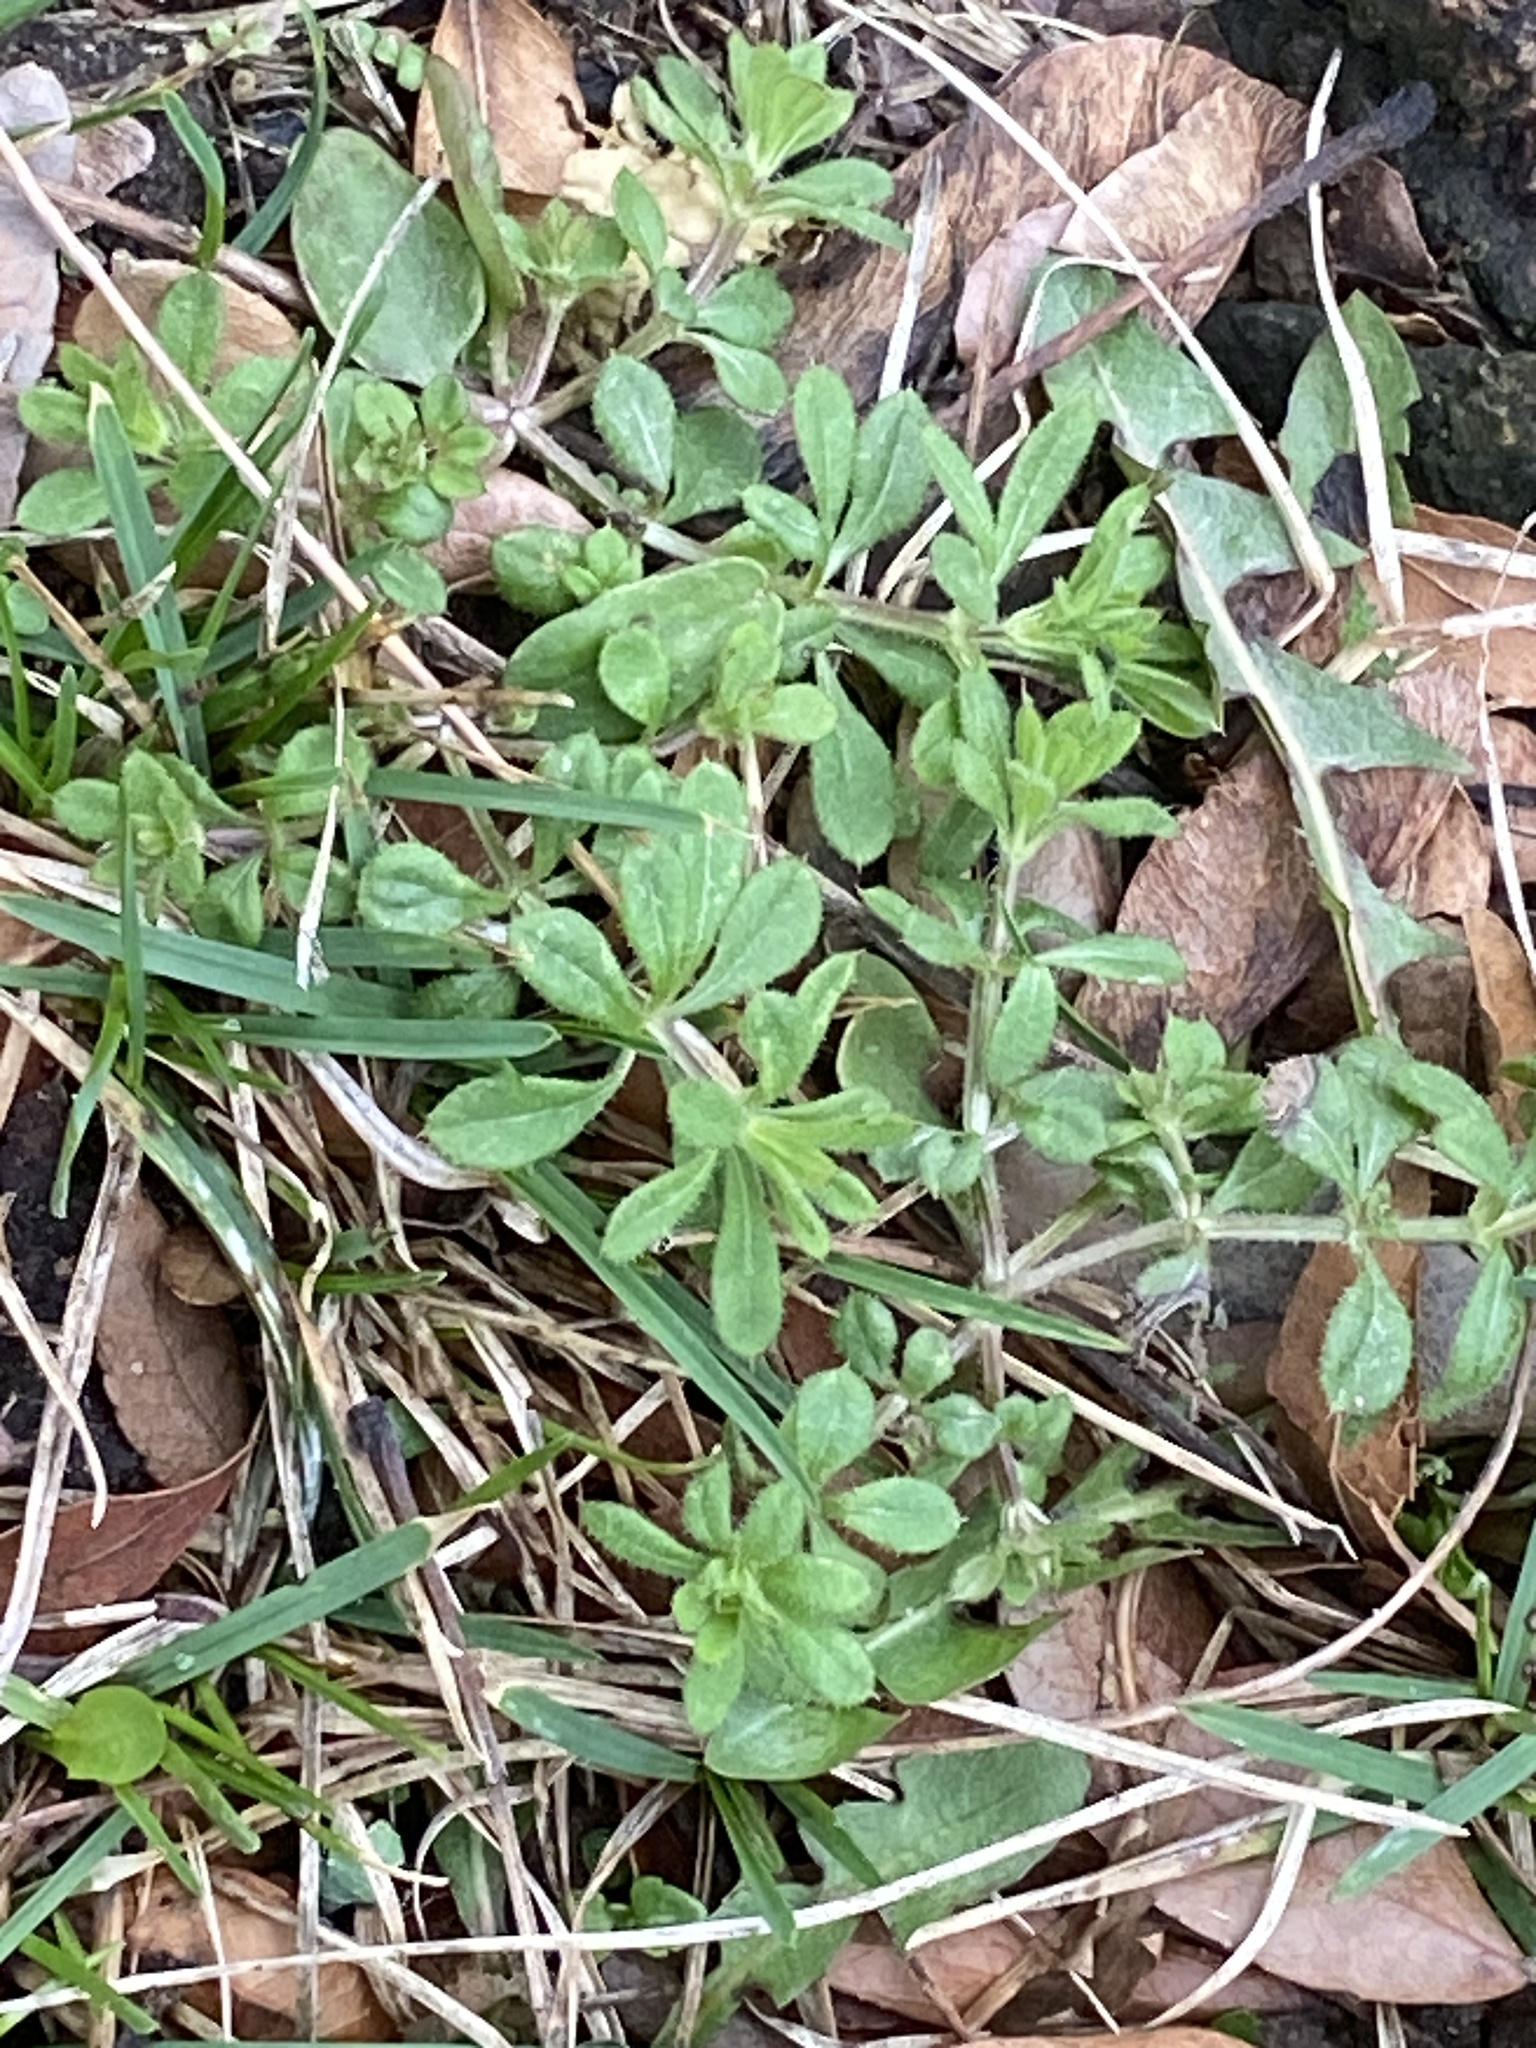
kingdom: Plantae
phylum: Tracheophyta
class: Magnoliopsida
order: Gentianales
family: Rubiaceae
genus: Galium
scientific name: Galium aparine
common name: Cleavers
